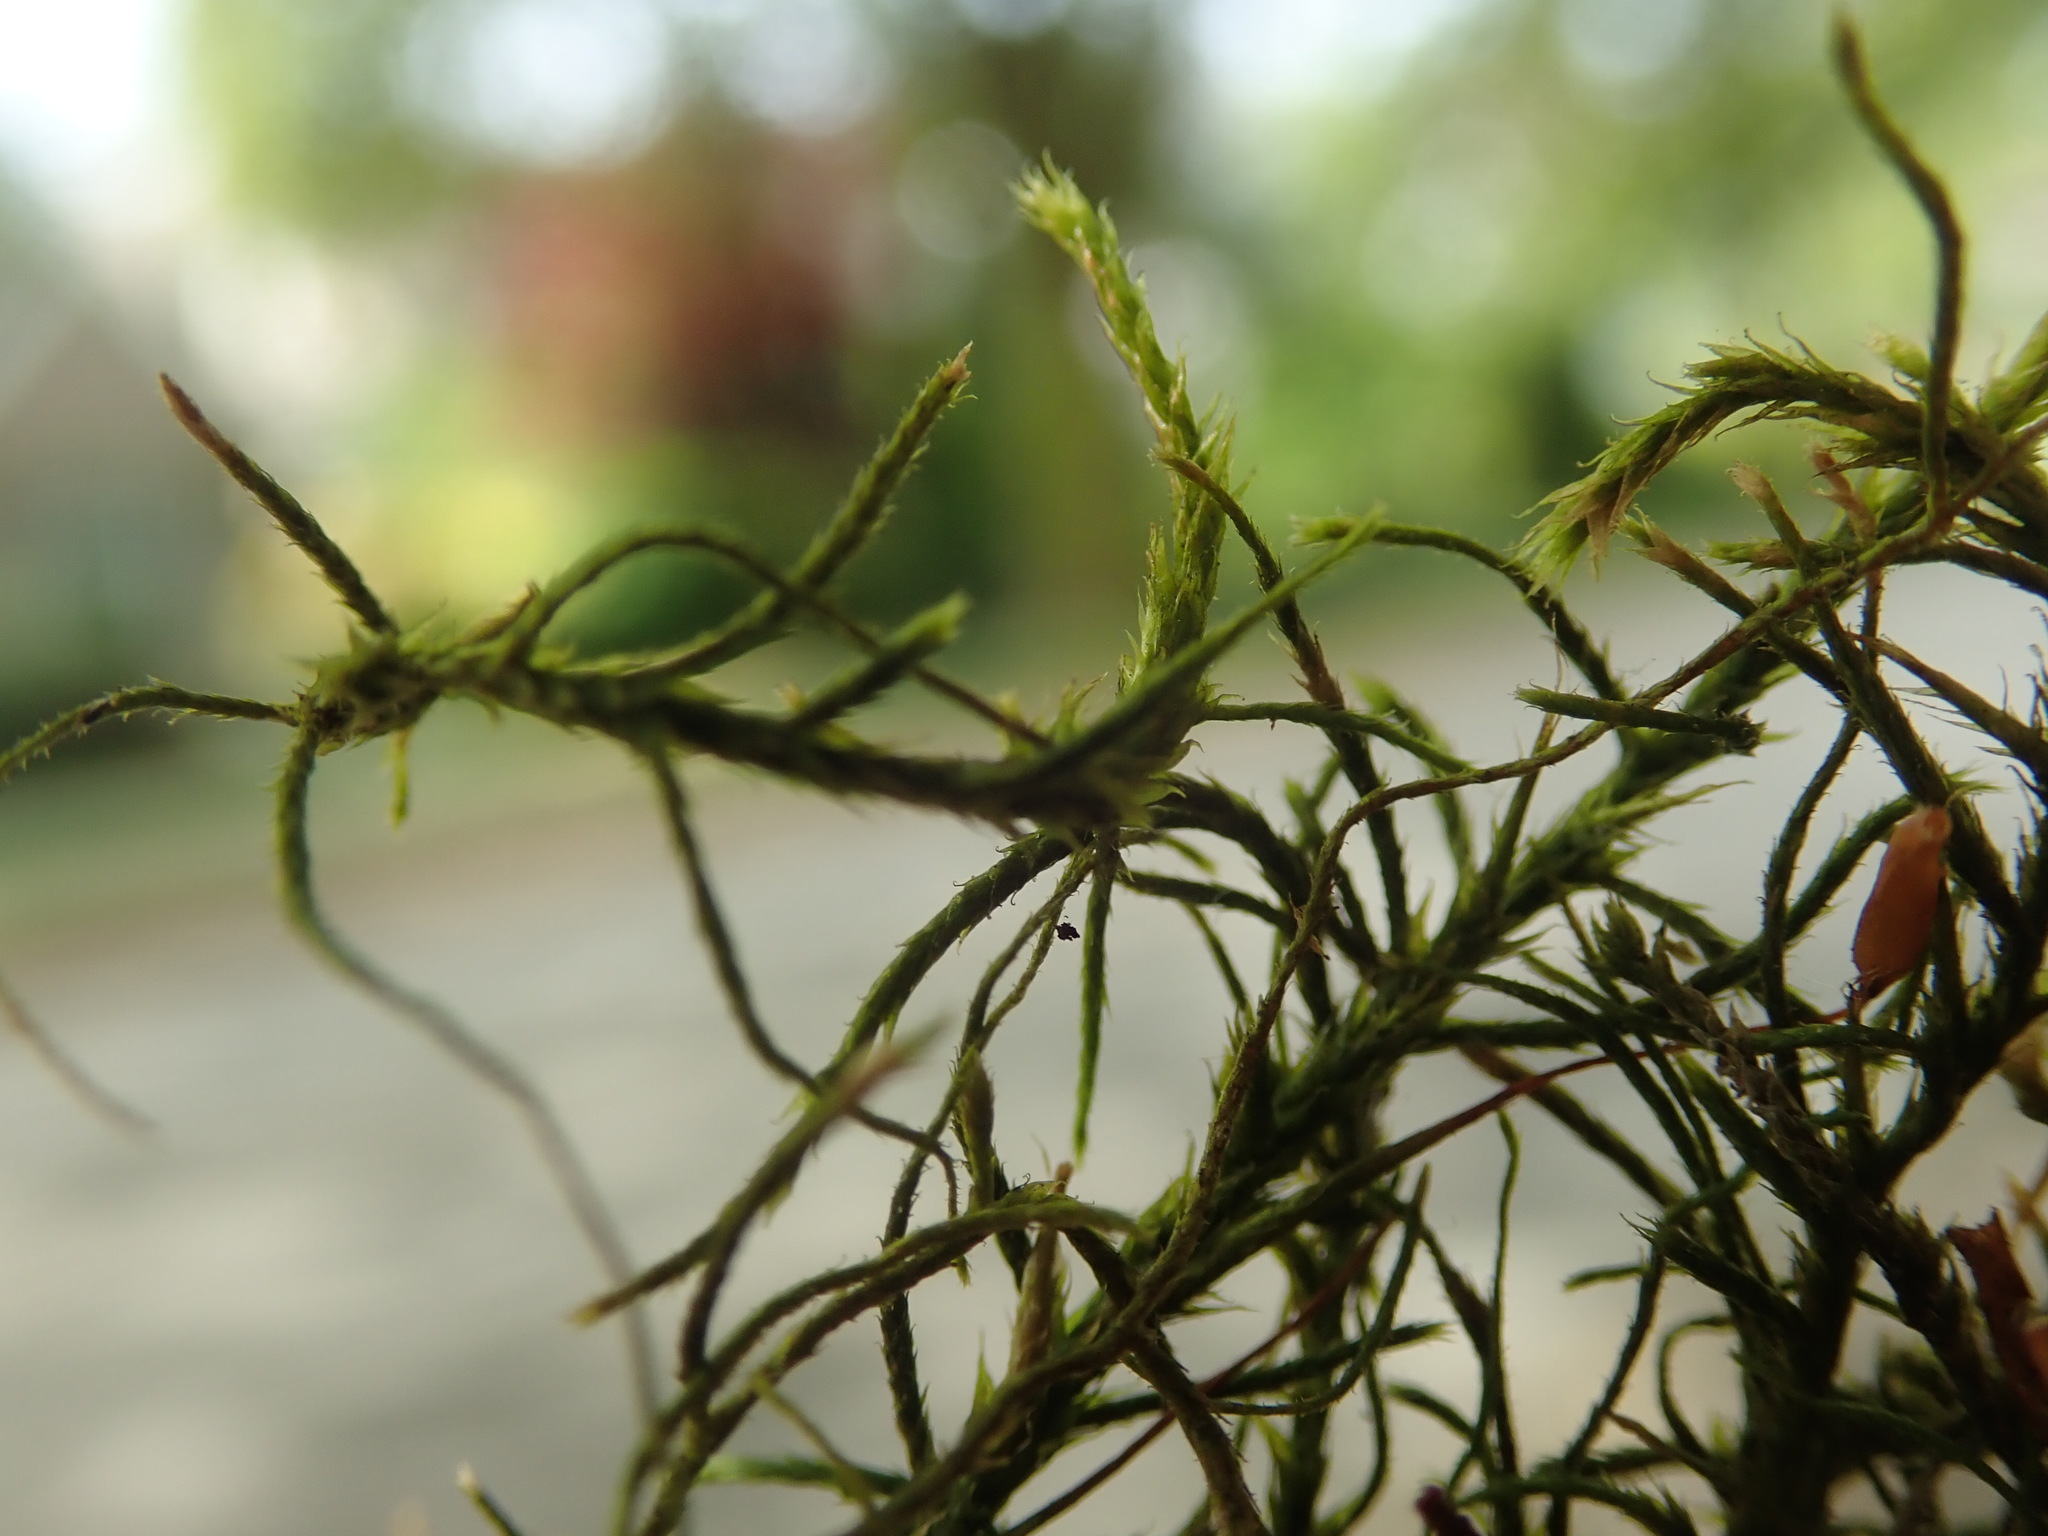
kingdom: Plantae
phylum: Bryophyta
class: Bryopsida
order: Hypnales
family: Antitrichiaceae
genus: Antitrichia
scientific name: Antitrichia californica
